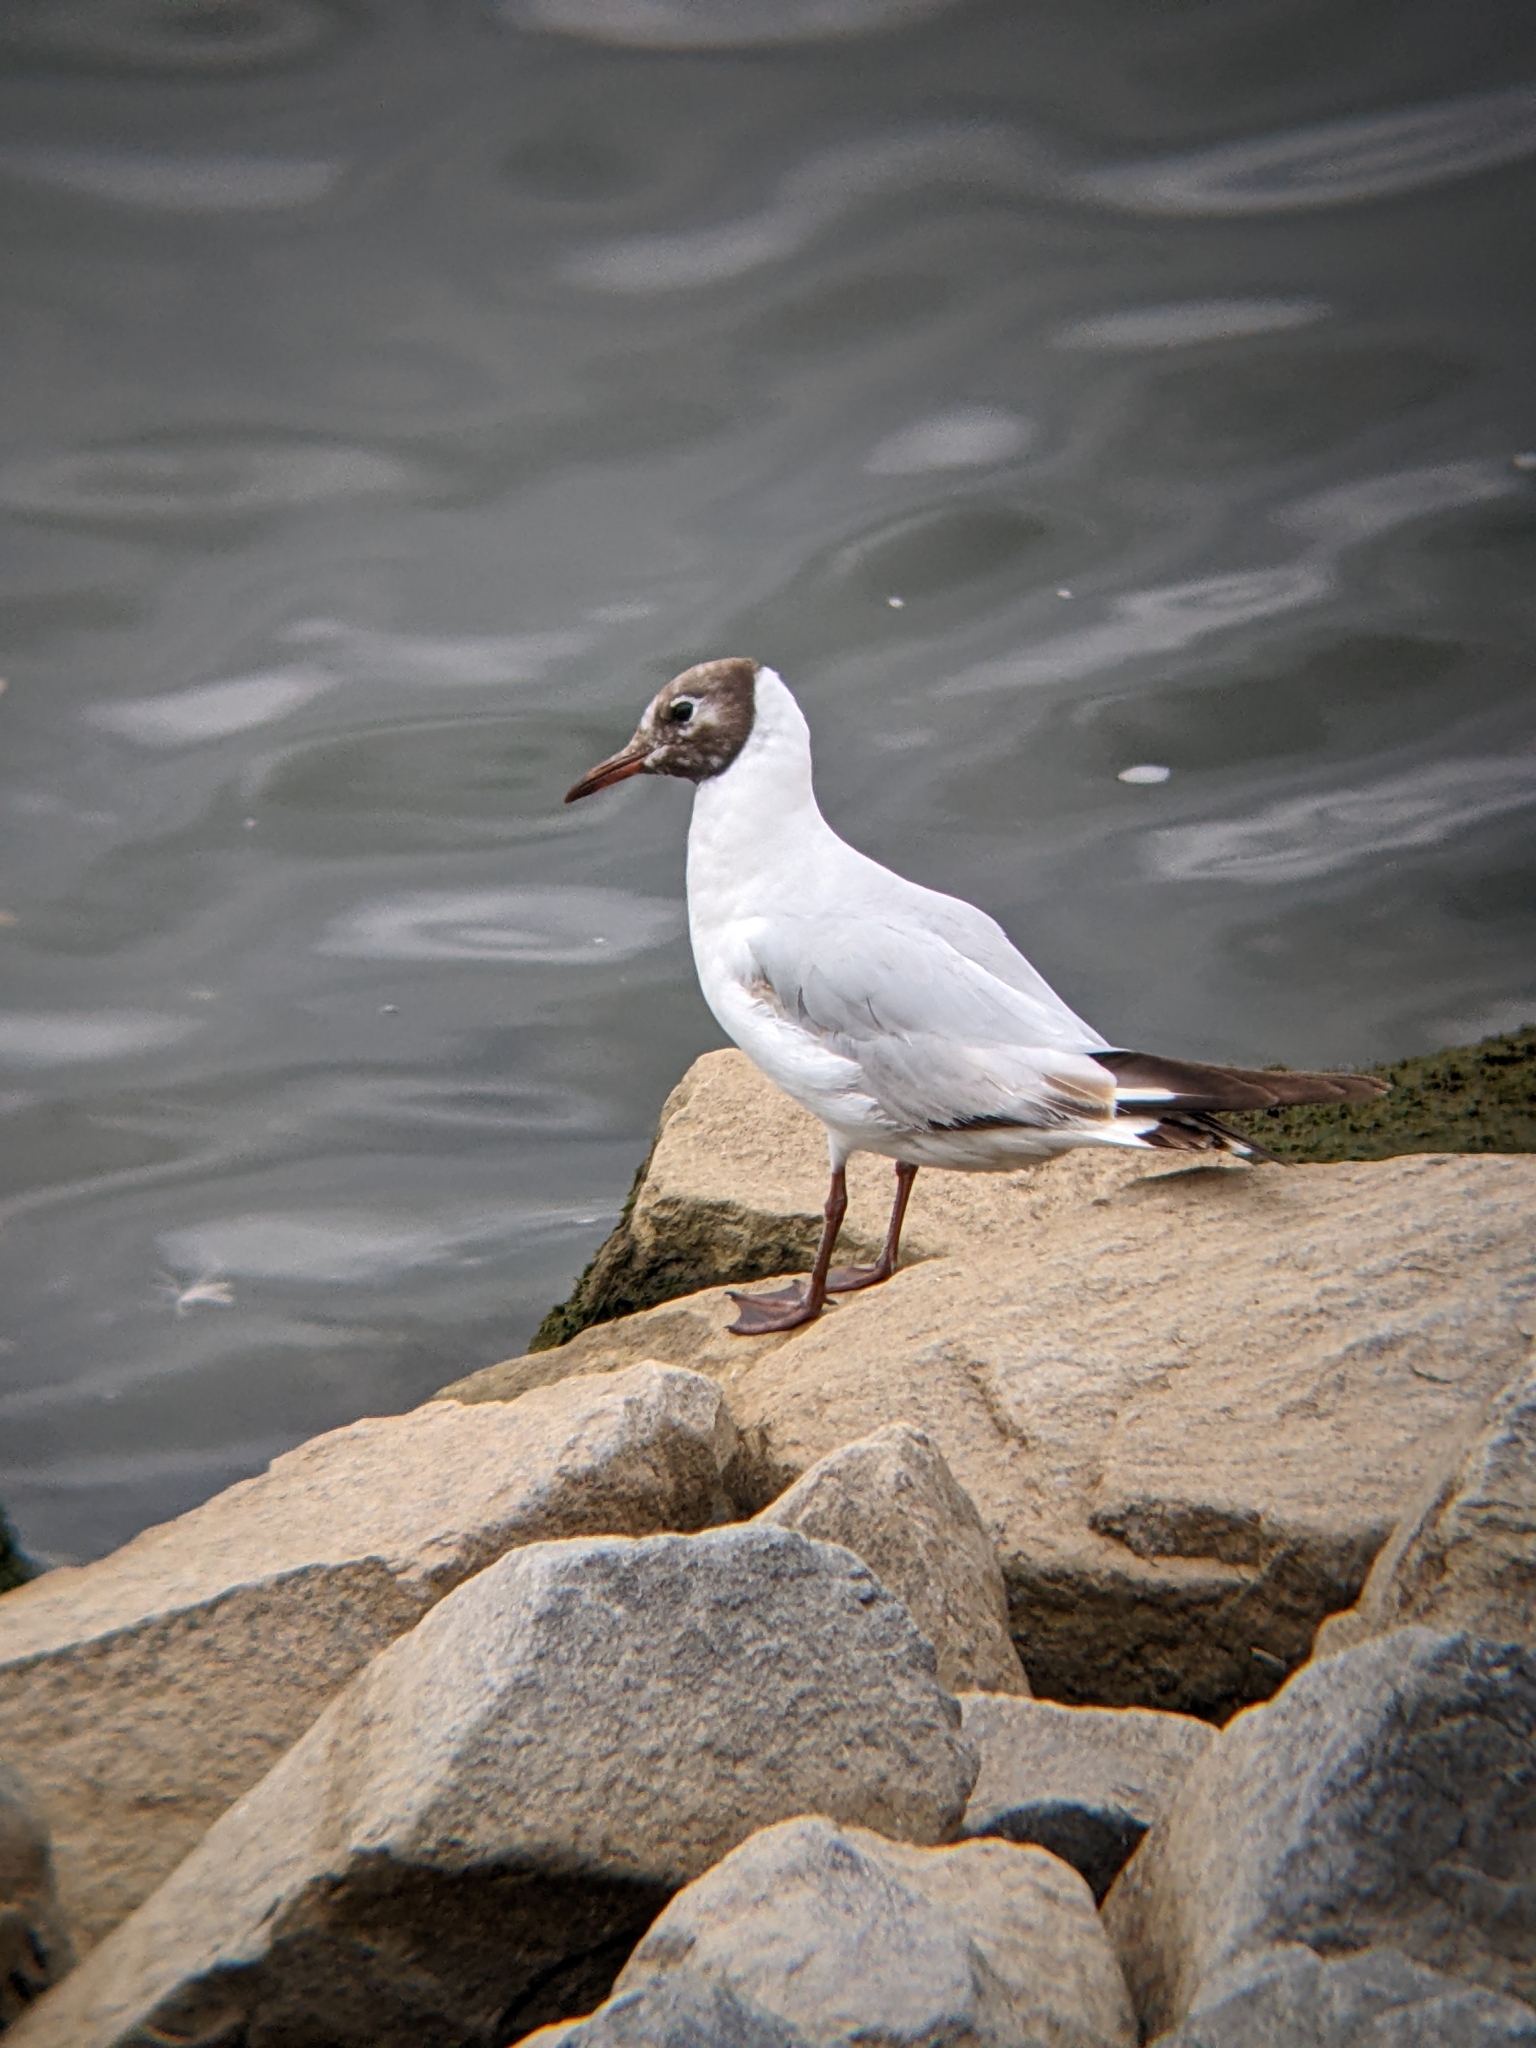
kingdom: Animalia
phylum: Chordata
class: Aves
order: Charadriiformes
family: Laridae
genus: Chroicocephalus
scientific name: Chroicocephalus ridibundus
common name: Black-headed gull
